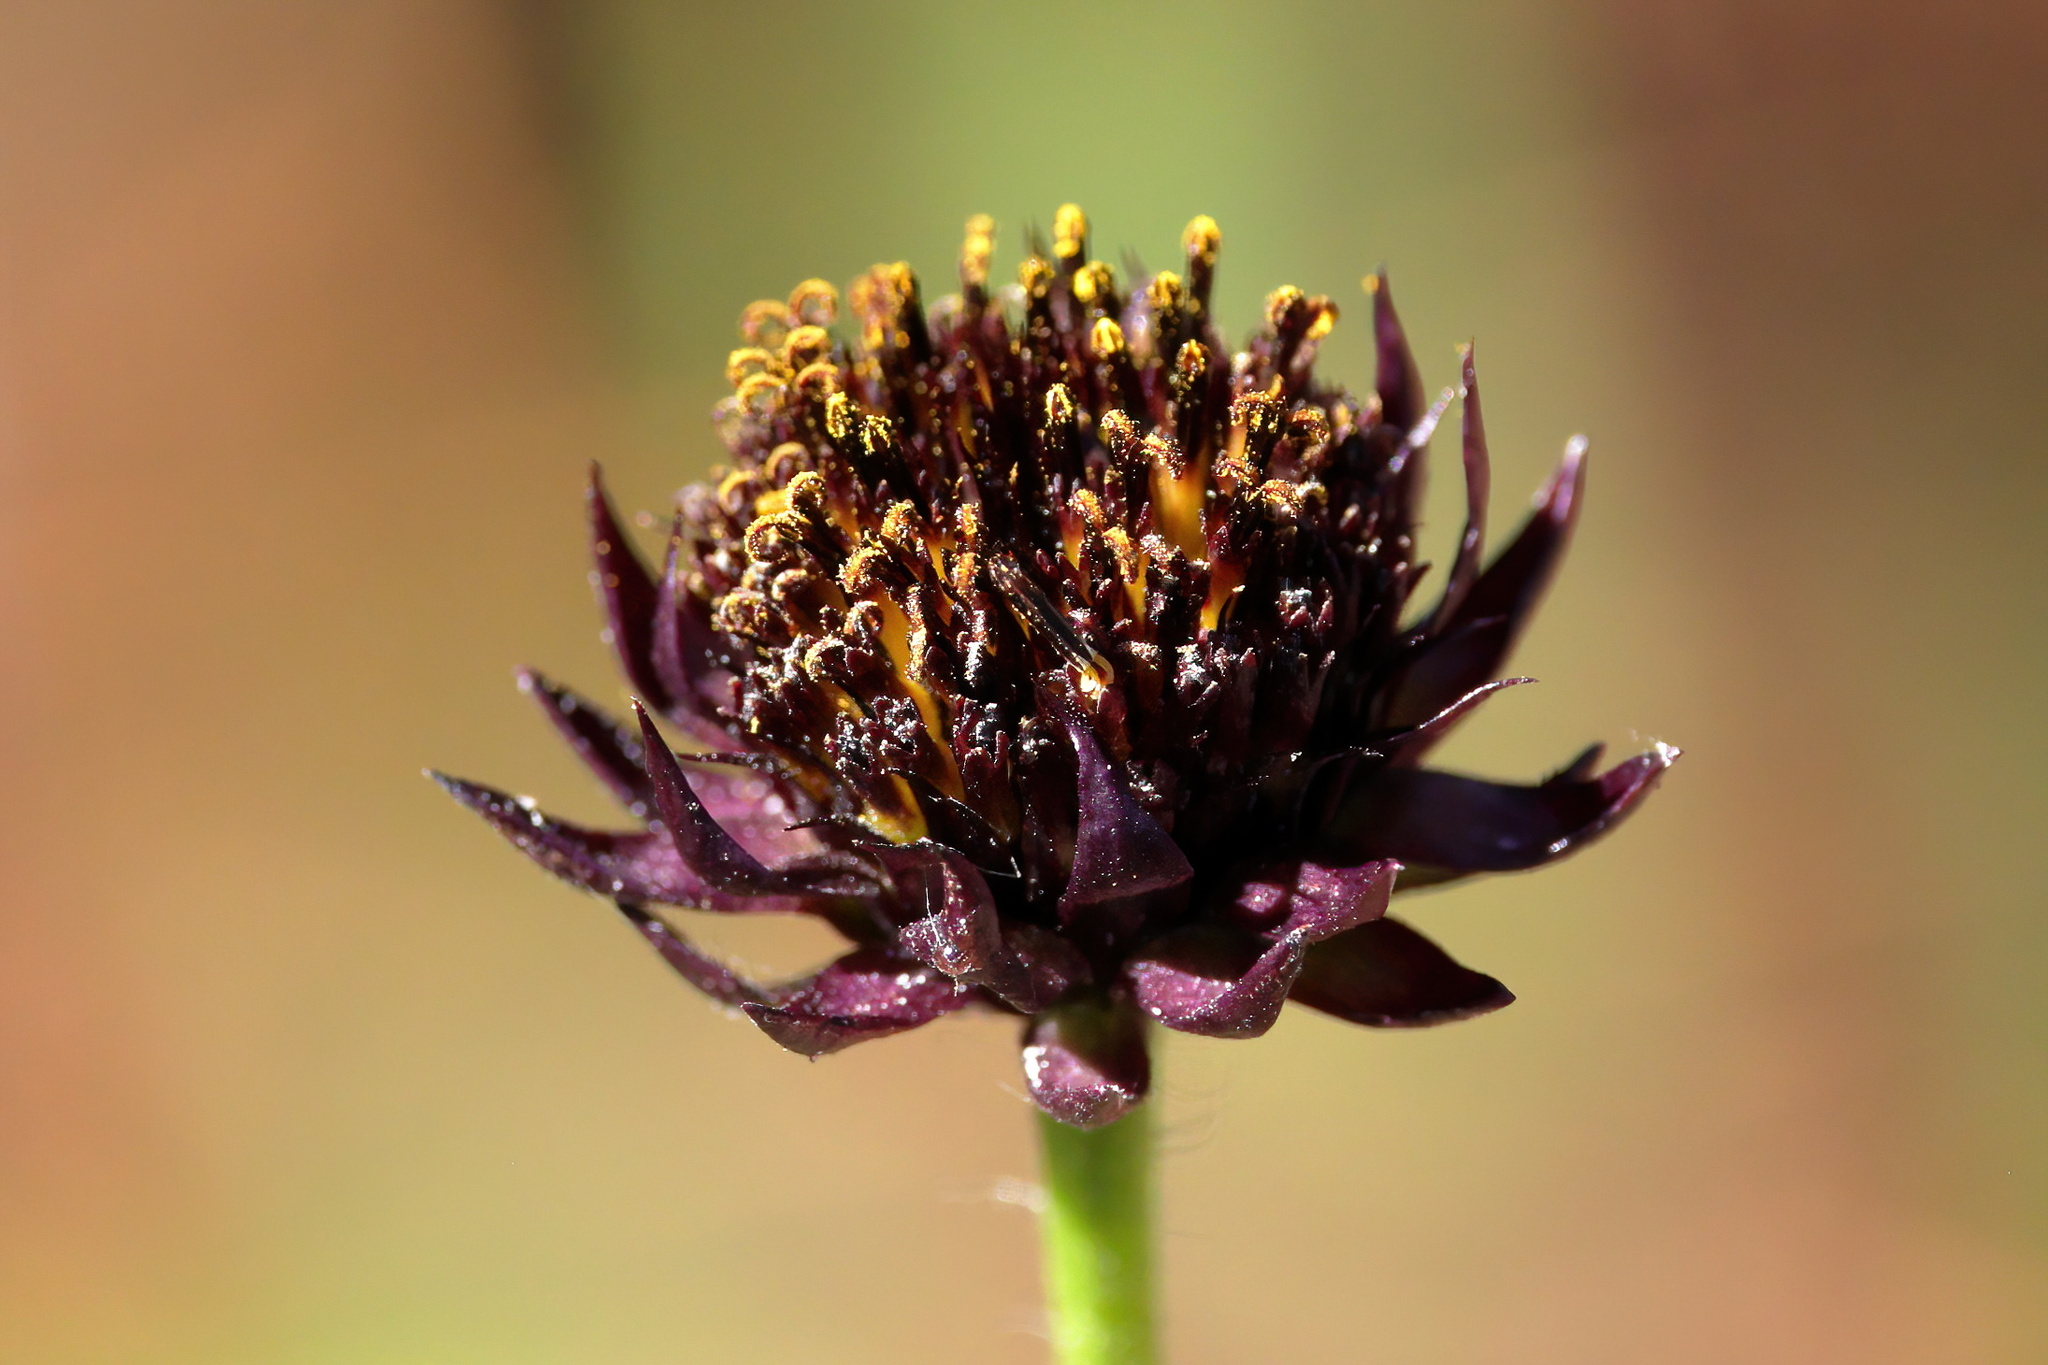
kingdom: Plantae
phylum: Tracheophyta
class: Magnoliopsida
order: Asterales
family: Asteraceae
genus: Helianthus
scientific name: Helianthus radula
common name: Pineland sunflower
